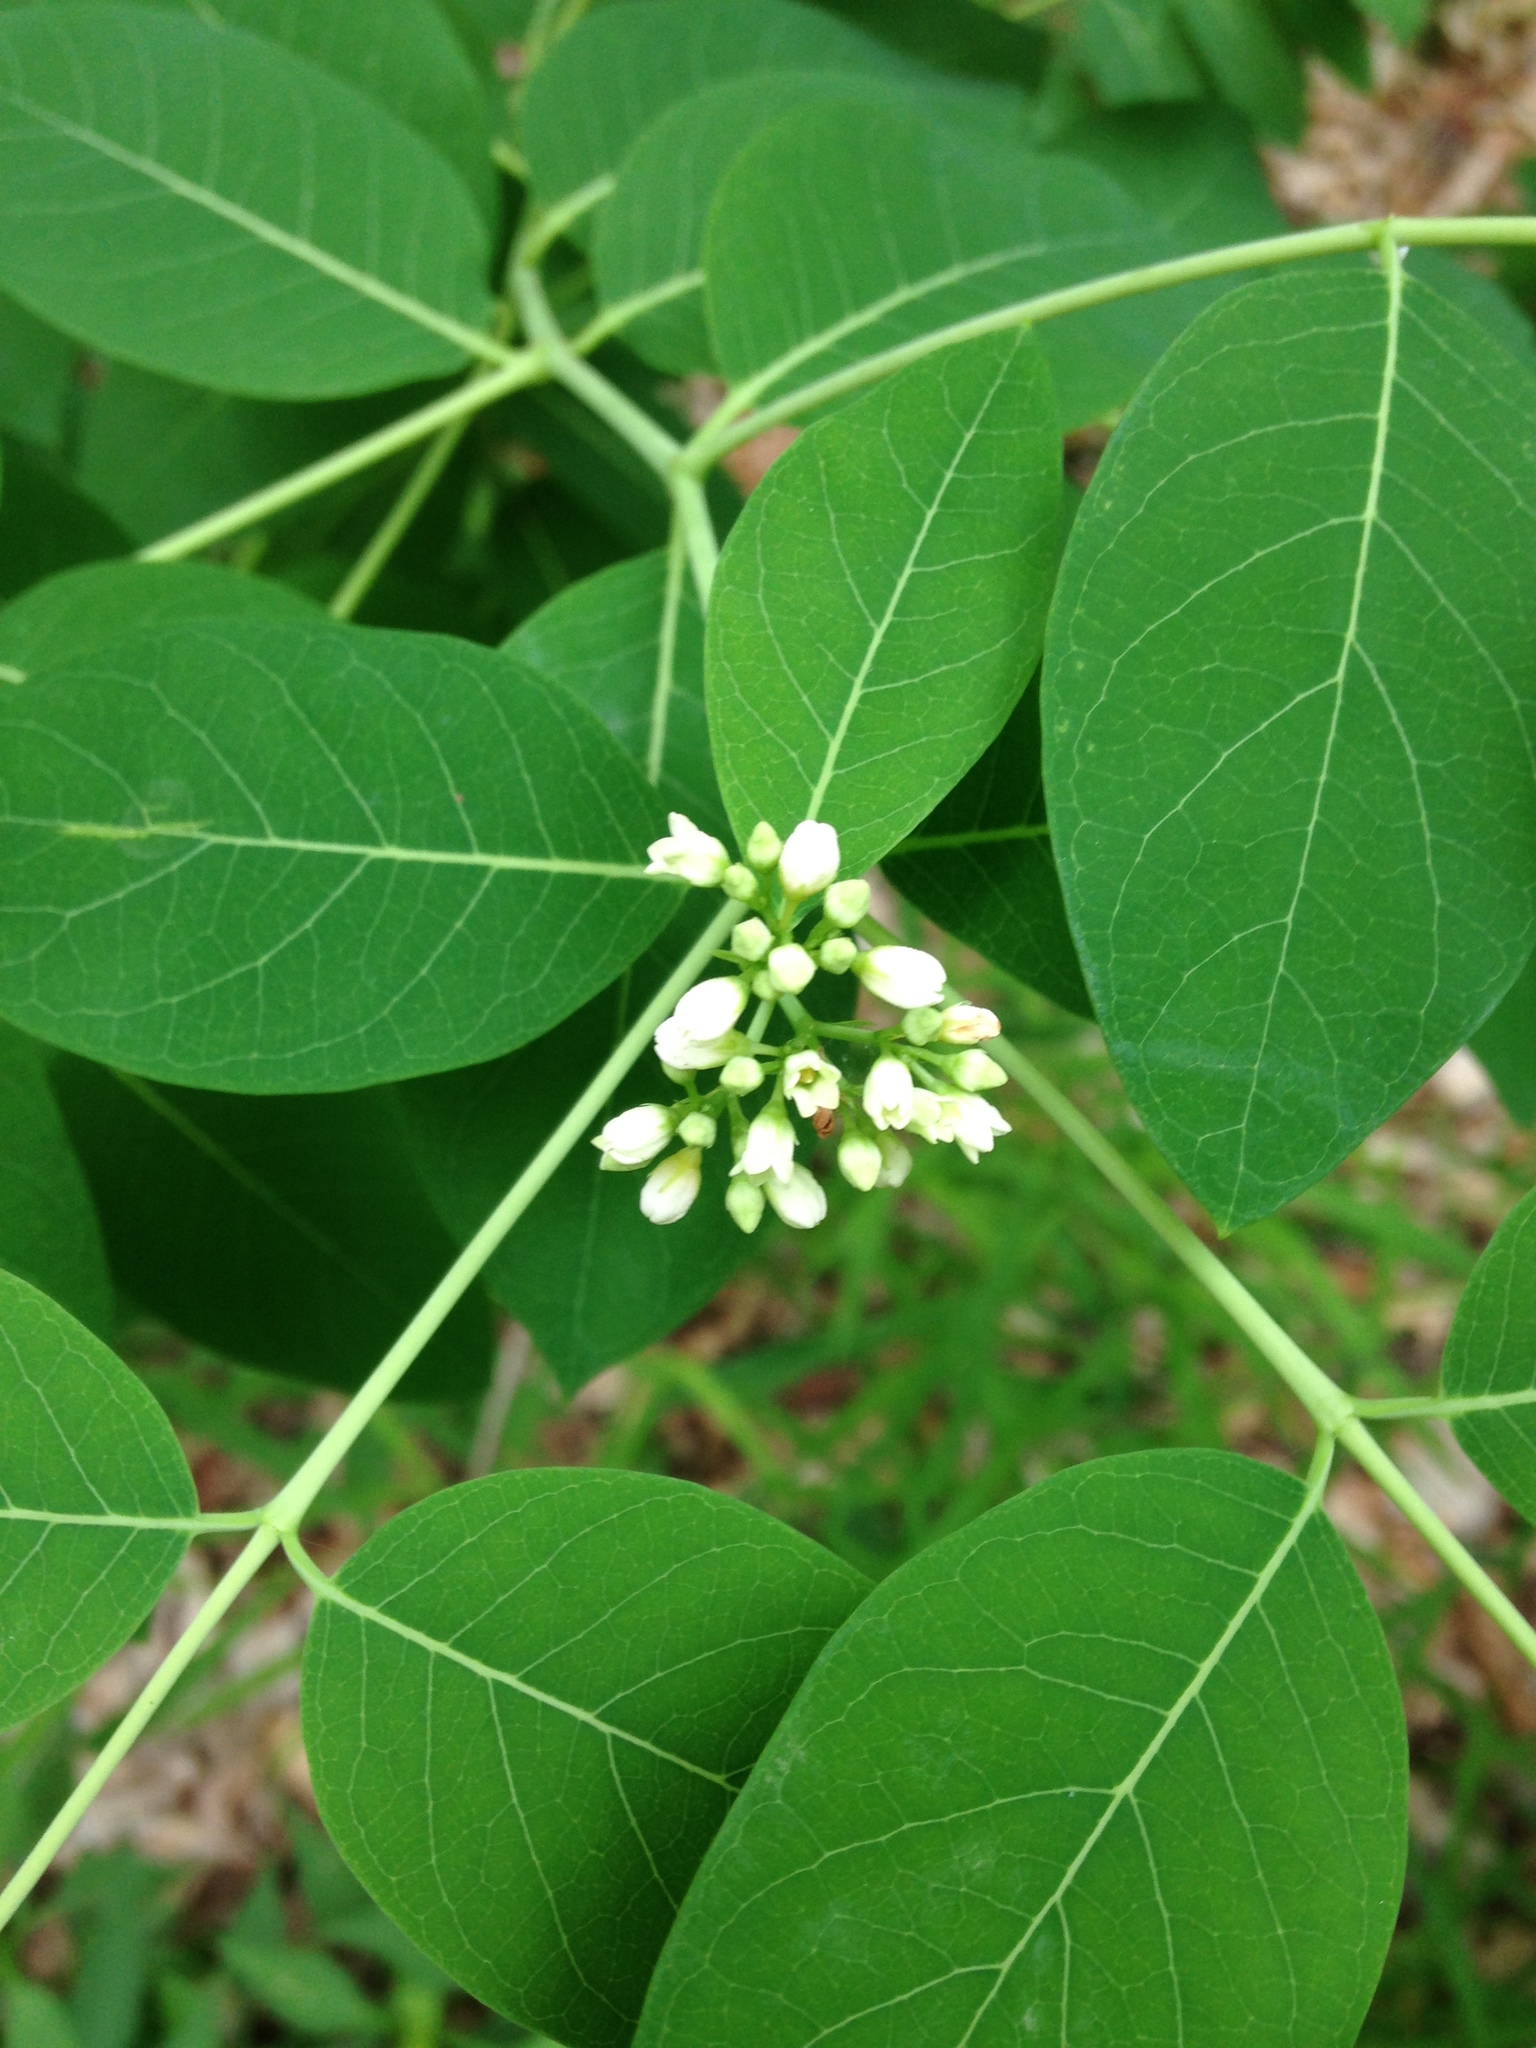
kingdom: Plantae
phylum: Tracheophyta
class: Magnoliopsida
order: Gentianales
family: Apocynaceae
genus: Apocynum
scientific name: Apocynum cannabinum
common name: Hemp dogbane
